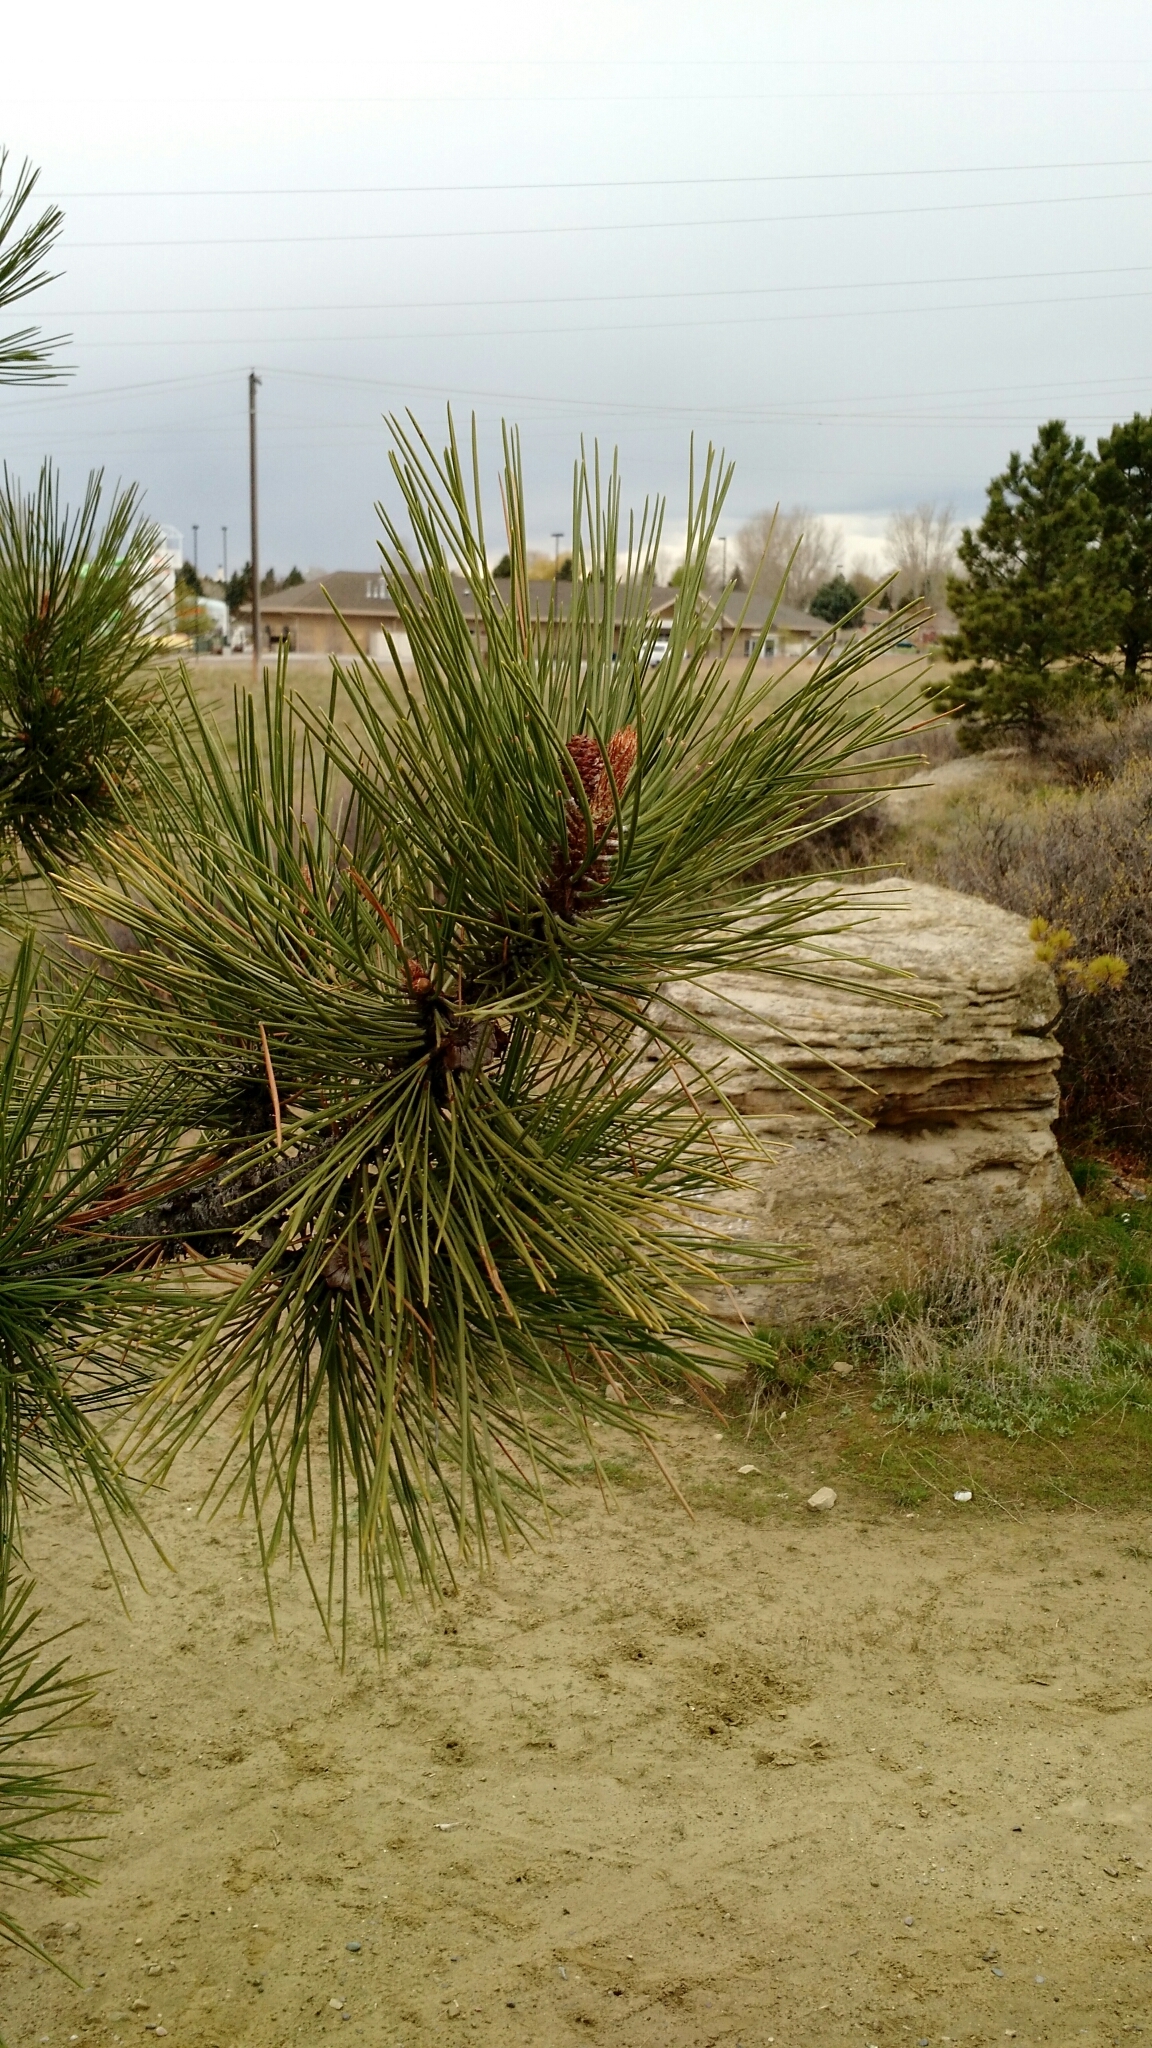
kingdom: Plantae
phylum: Tracheophyta
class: Pinopsida
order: Pinales
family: Pinaceae
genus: Pinus
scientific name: Pinus ponderosa
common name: Western yellow-pine
